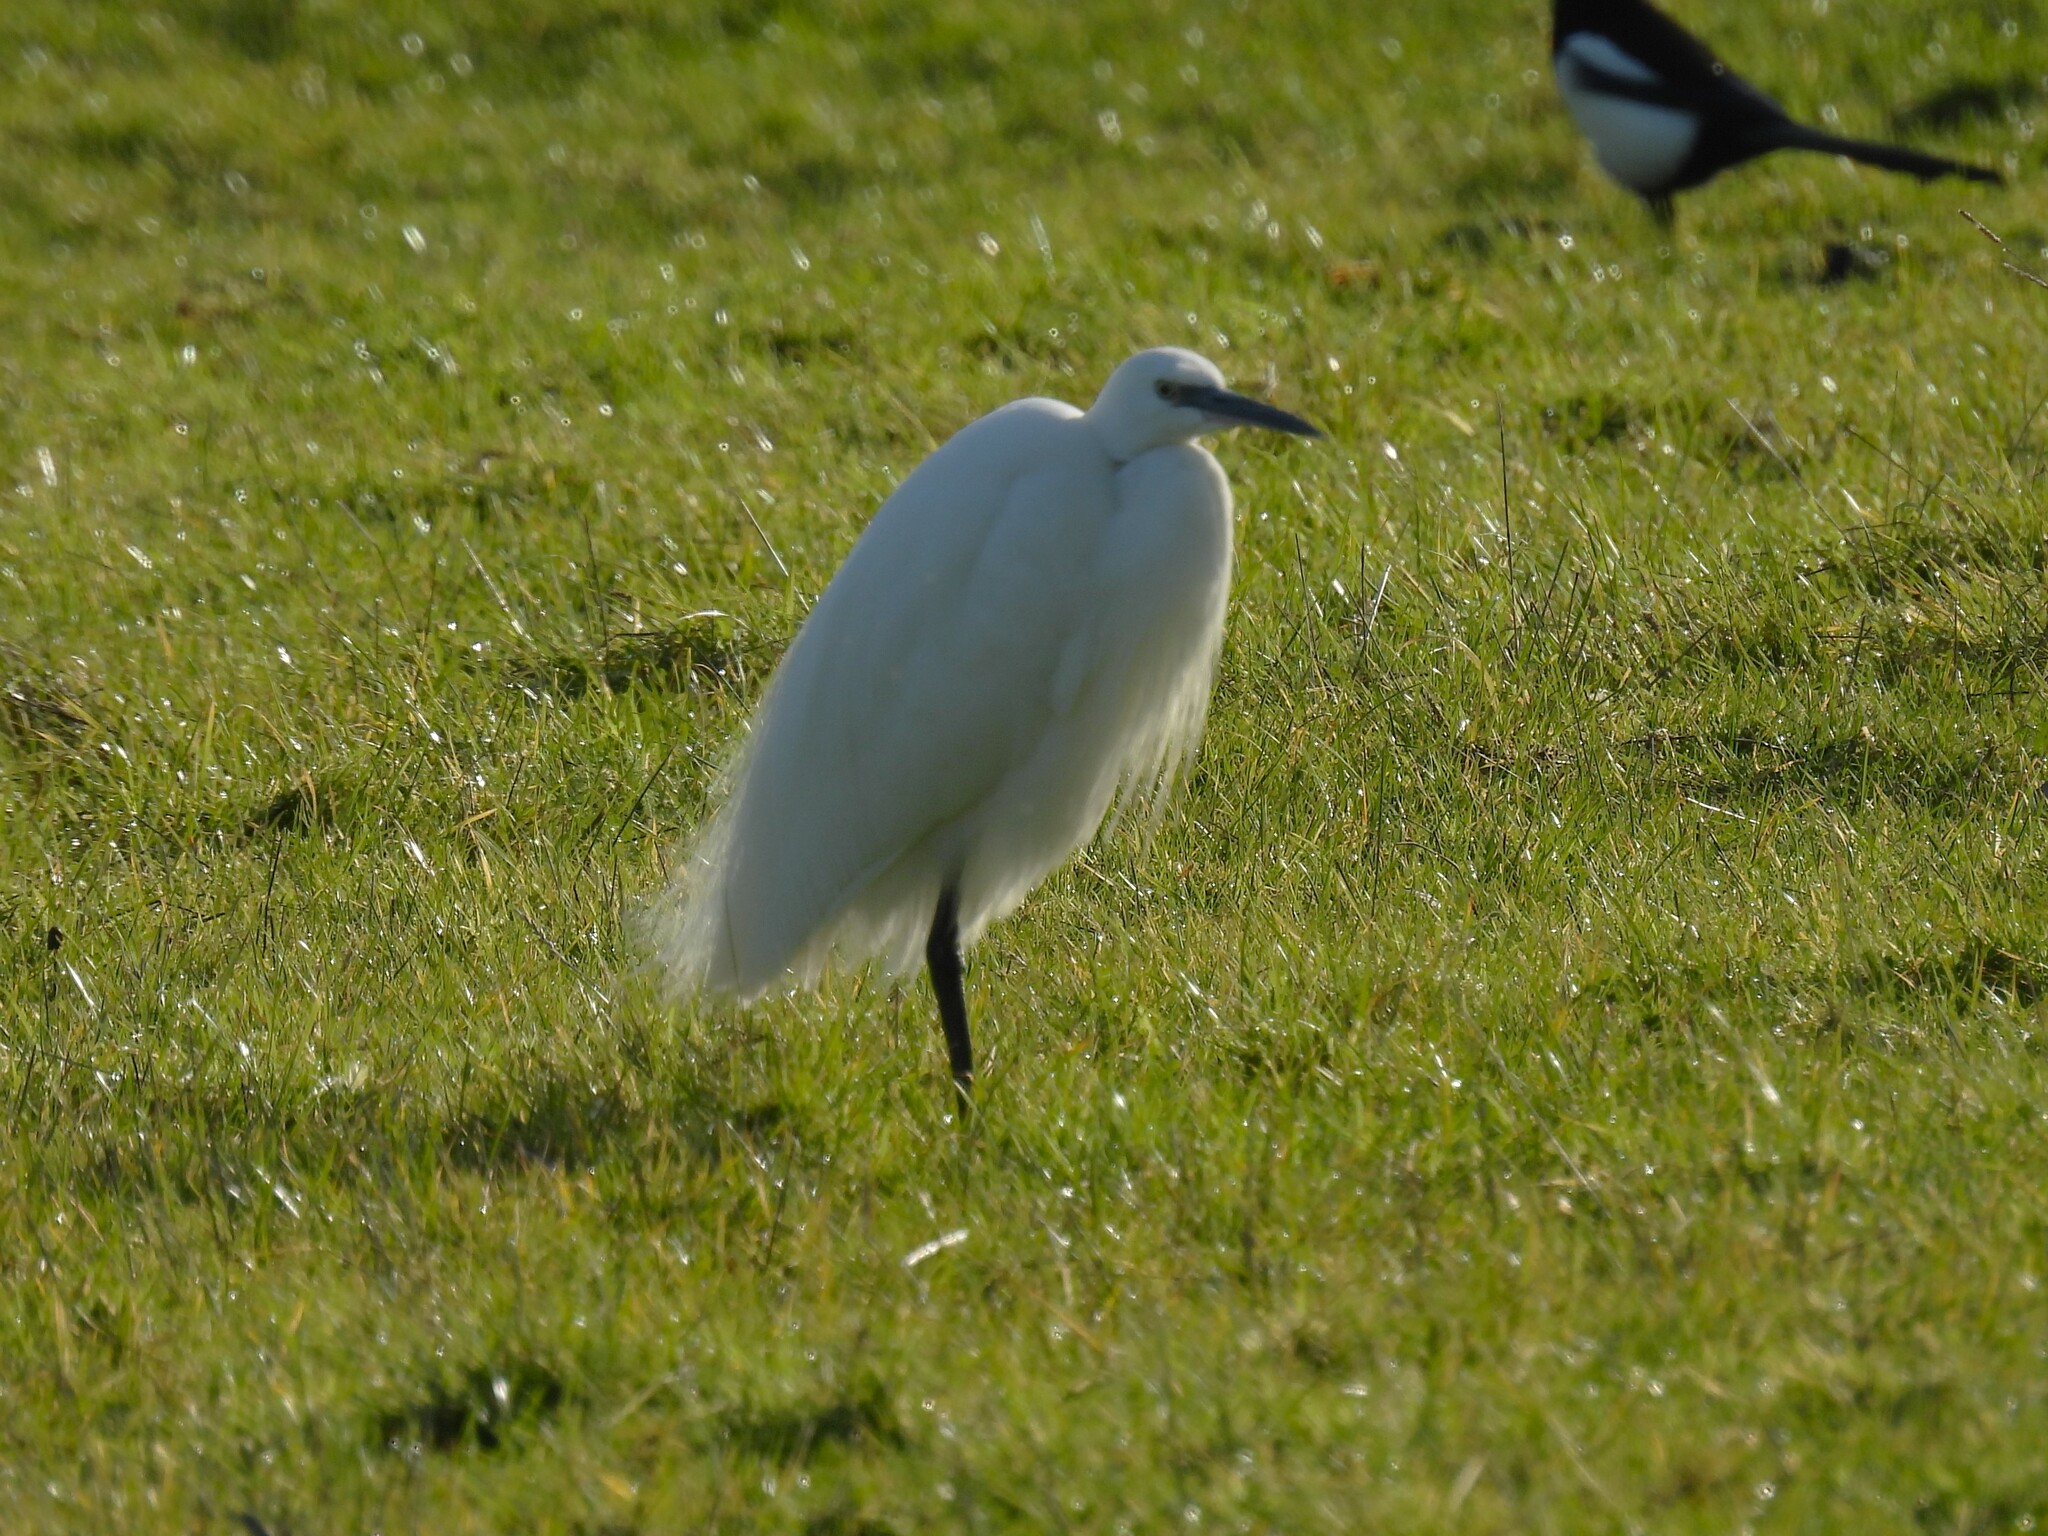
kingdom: Animalia
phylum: Chordata
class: Aves
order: Pelecaniformes
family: Ardeidae
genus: Egretta
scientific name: Egretta garzetta
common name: Little egret
